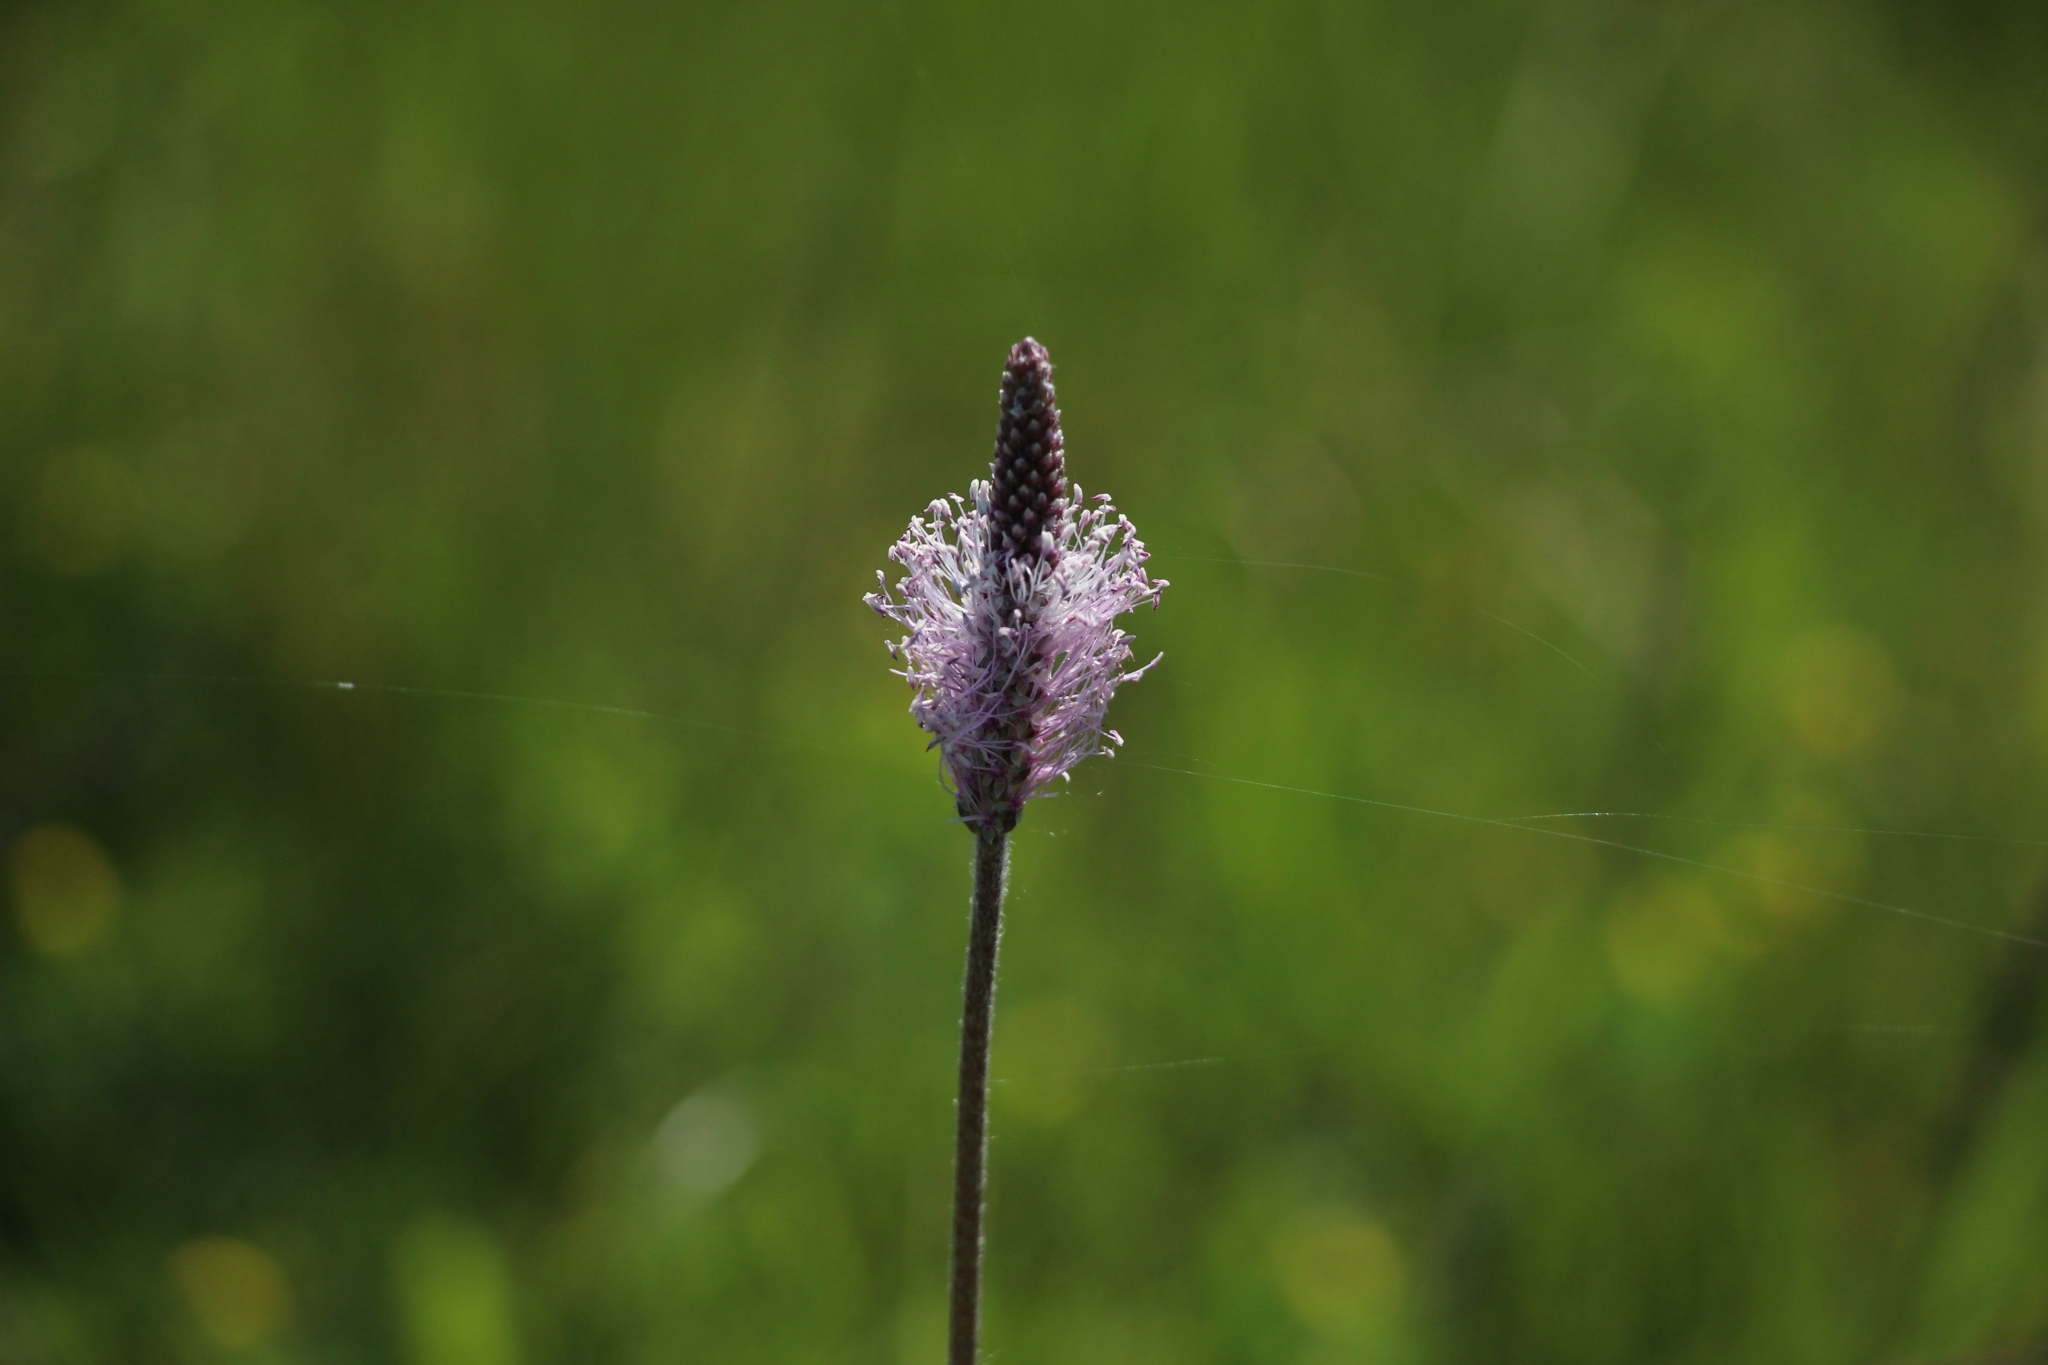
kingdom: Plantae
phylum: Tracheophyta
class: Magnoliopsida
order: Lamiales
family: Plantaginaceae
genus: Plantago
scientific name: Plantago media
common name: Hoary plantain
